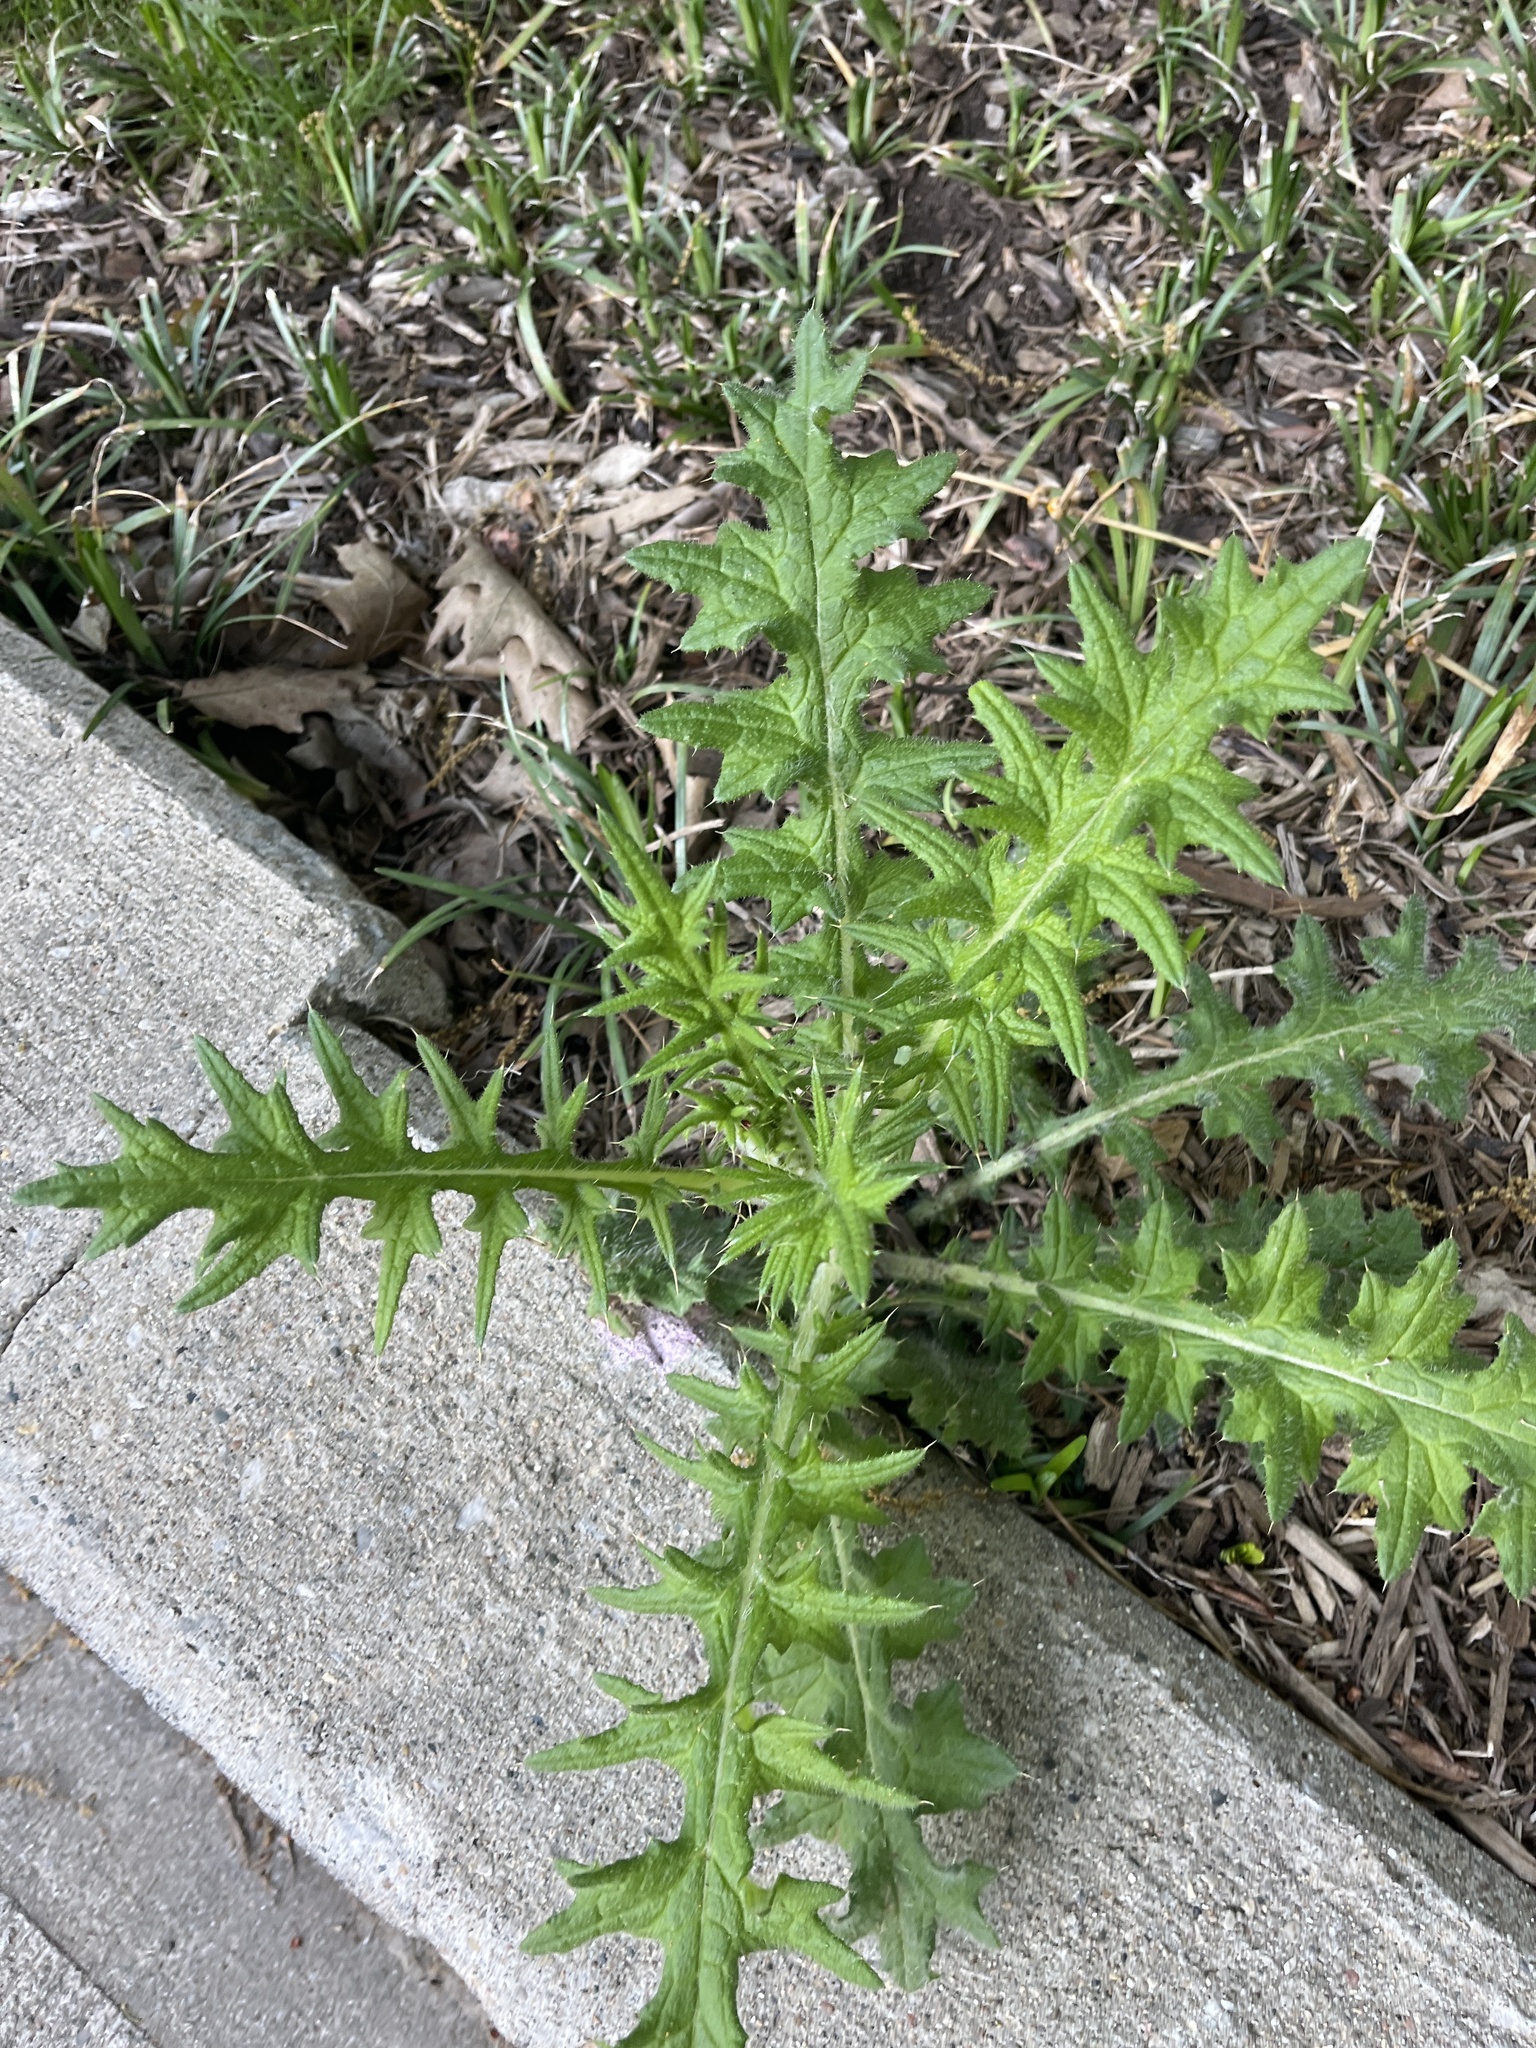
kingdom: Plantae
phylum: Tracheophyta
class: Magnoliopsida
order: Asterales
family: Asteraceae
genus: Cirsium
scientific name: Cirsium vulgare
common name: Bull thistle
